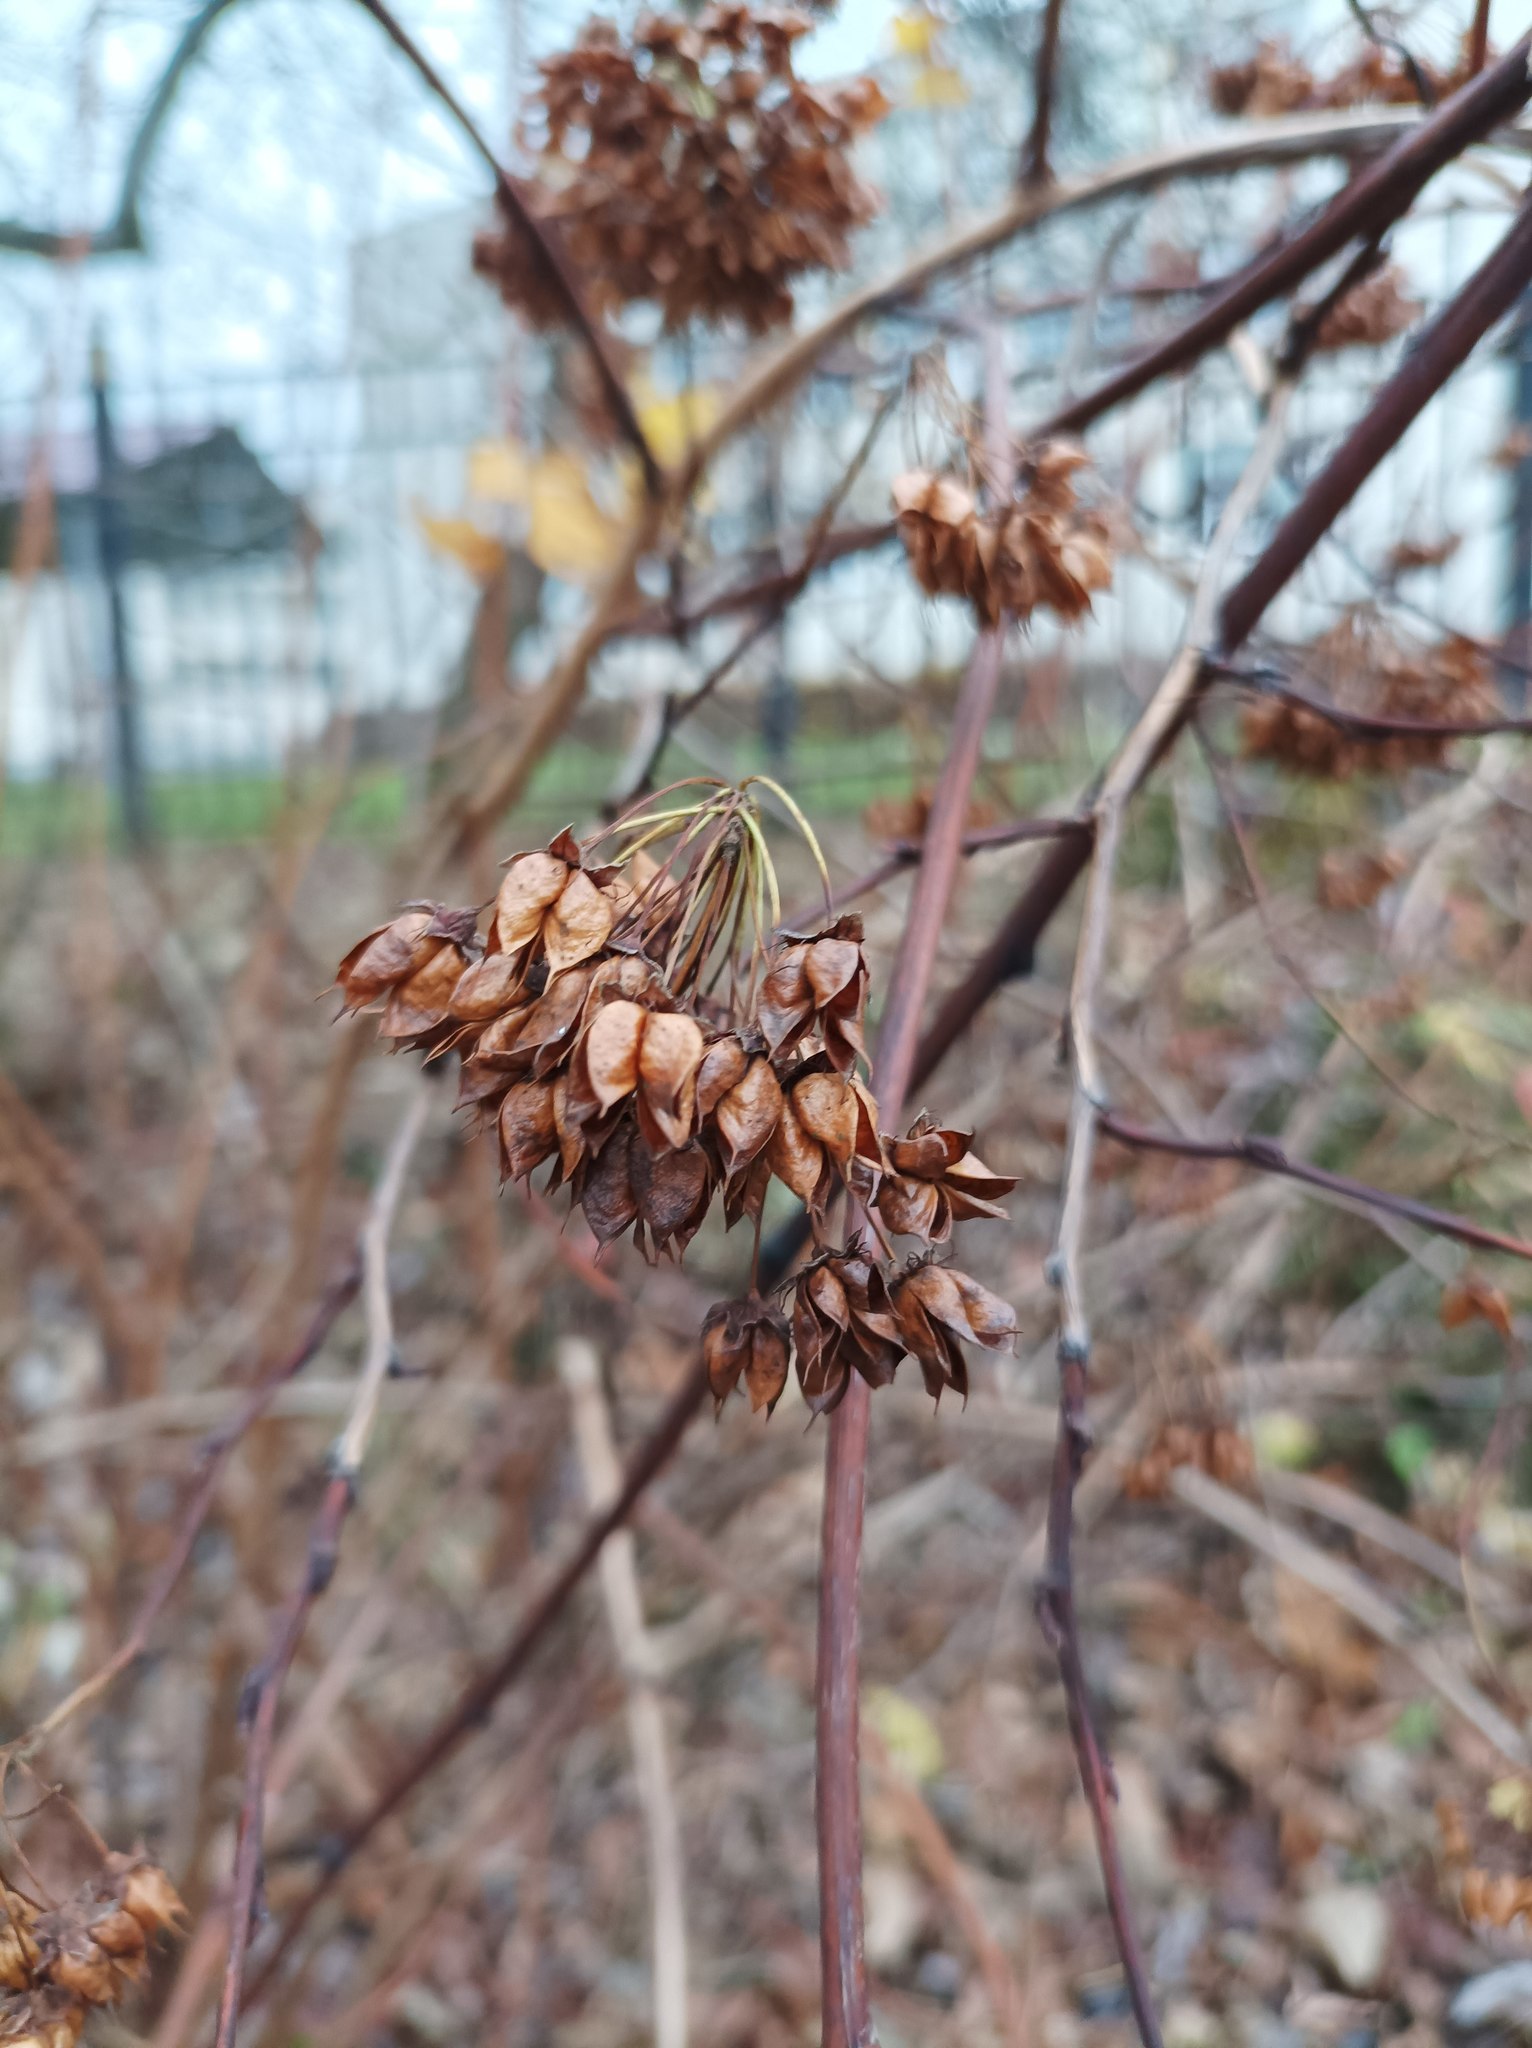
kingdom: Plantae
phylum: Tracheophyta
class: Magnoliopsida
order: Rosales
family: Rosaceae
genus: Physocarpus
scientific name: Physocarpus opulifolius
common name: Ninebark
